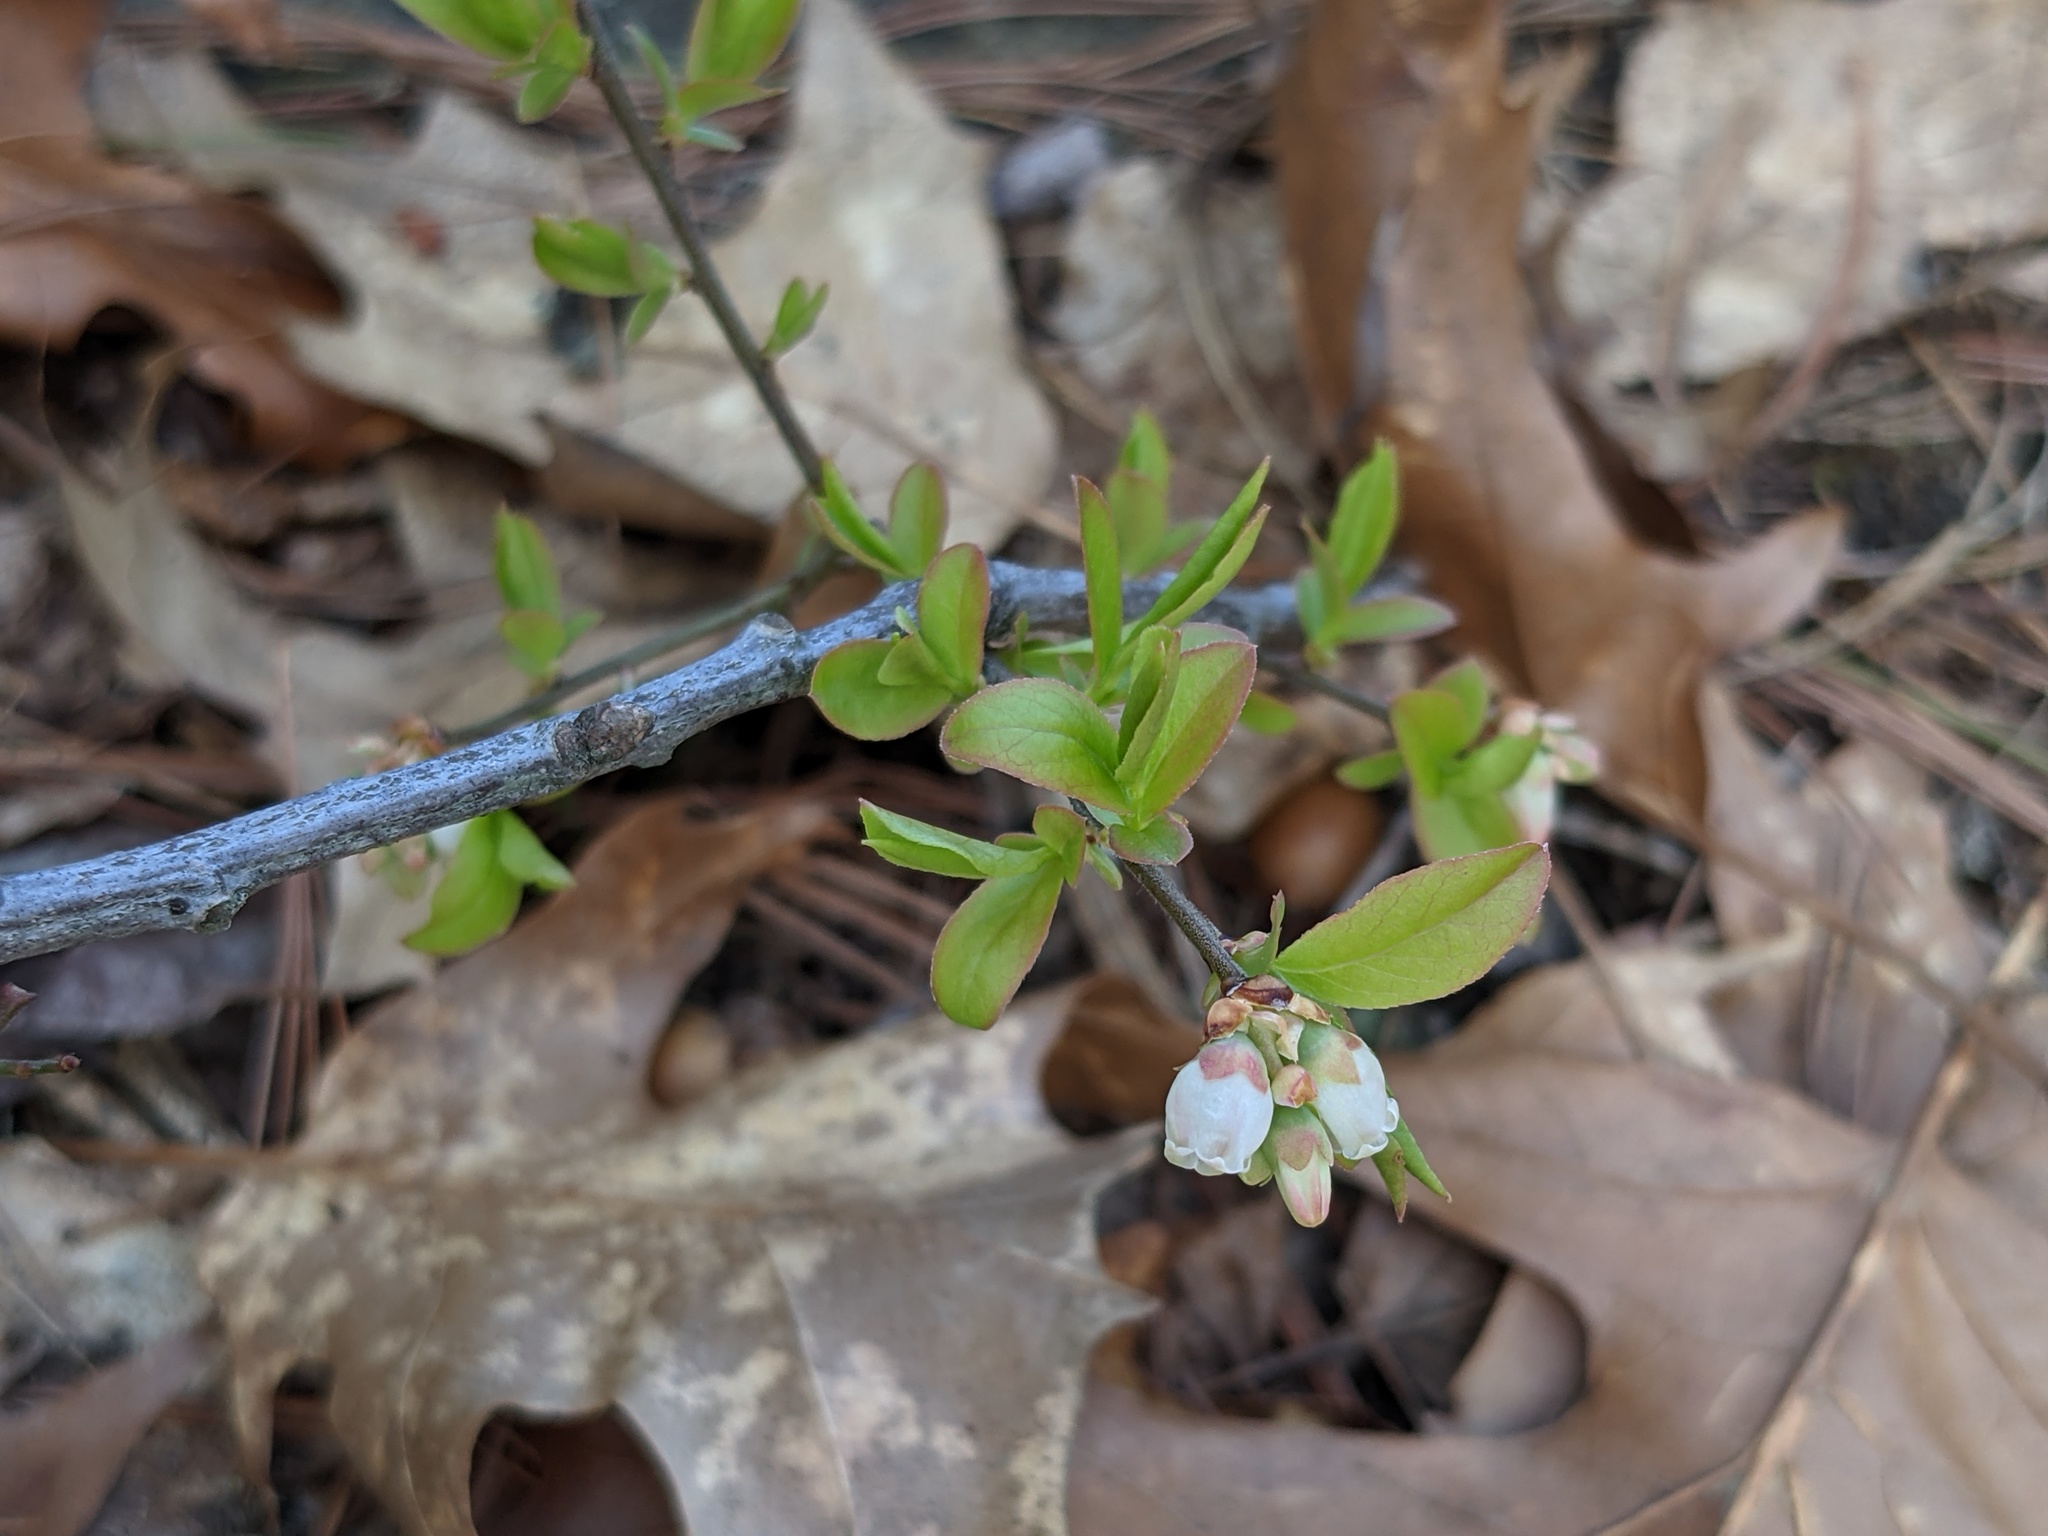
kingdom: Plantae
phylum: Tracheophyta
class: Magnoliopsida
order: Ericales
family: Ericaceae
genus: Vaccinium
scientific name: Vaccinium angustifolium
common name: Early lowbush blueberry
